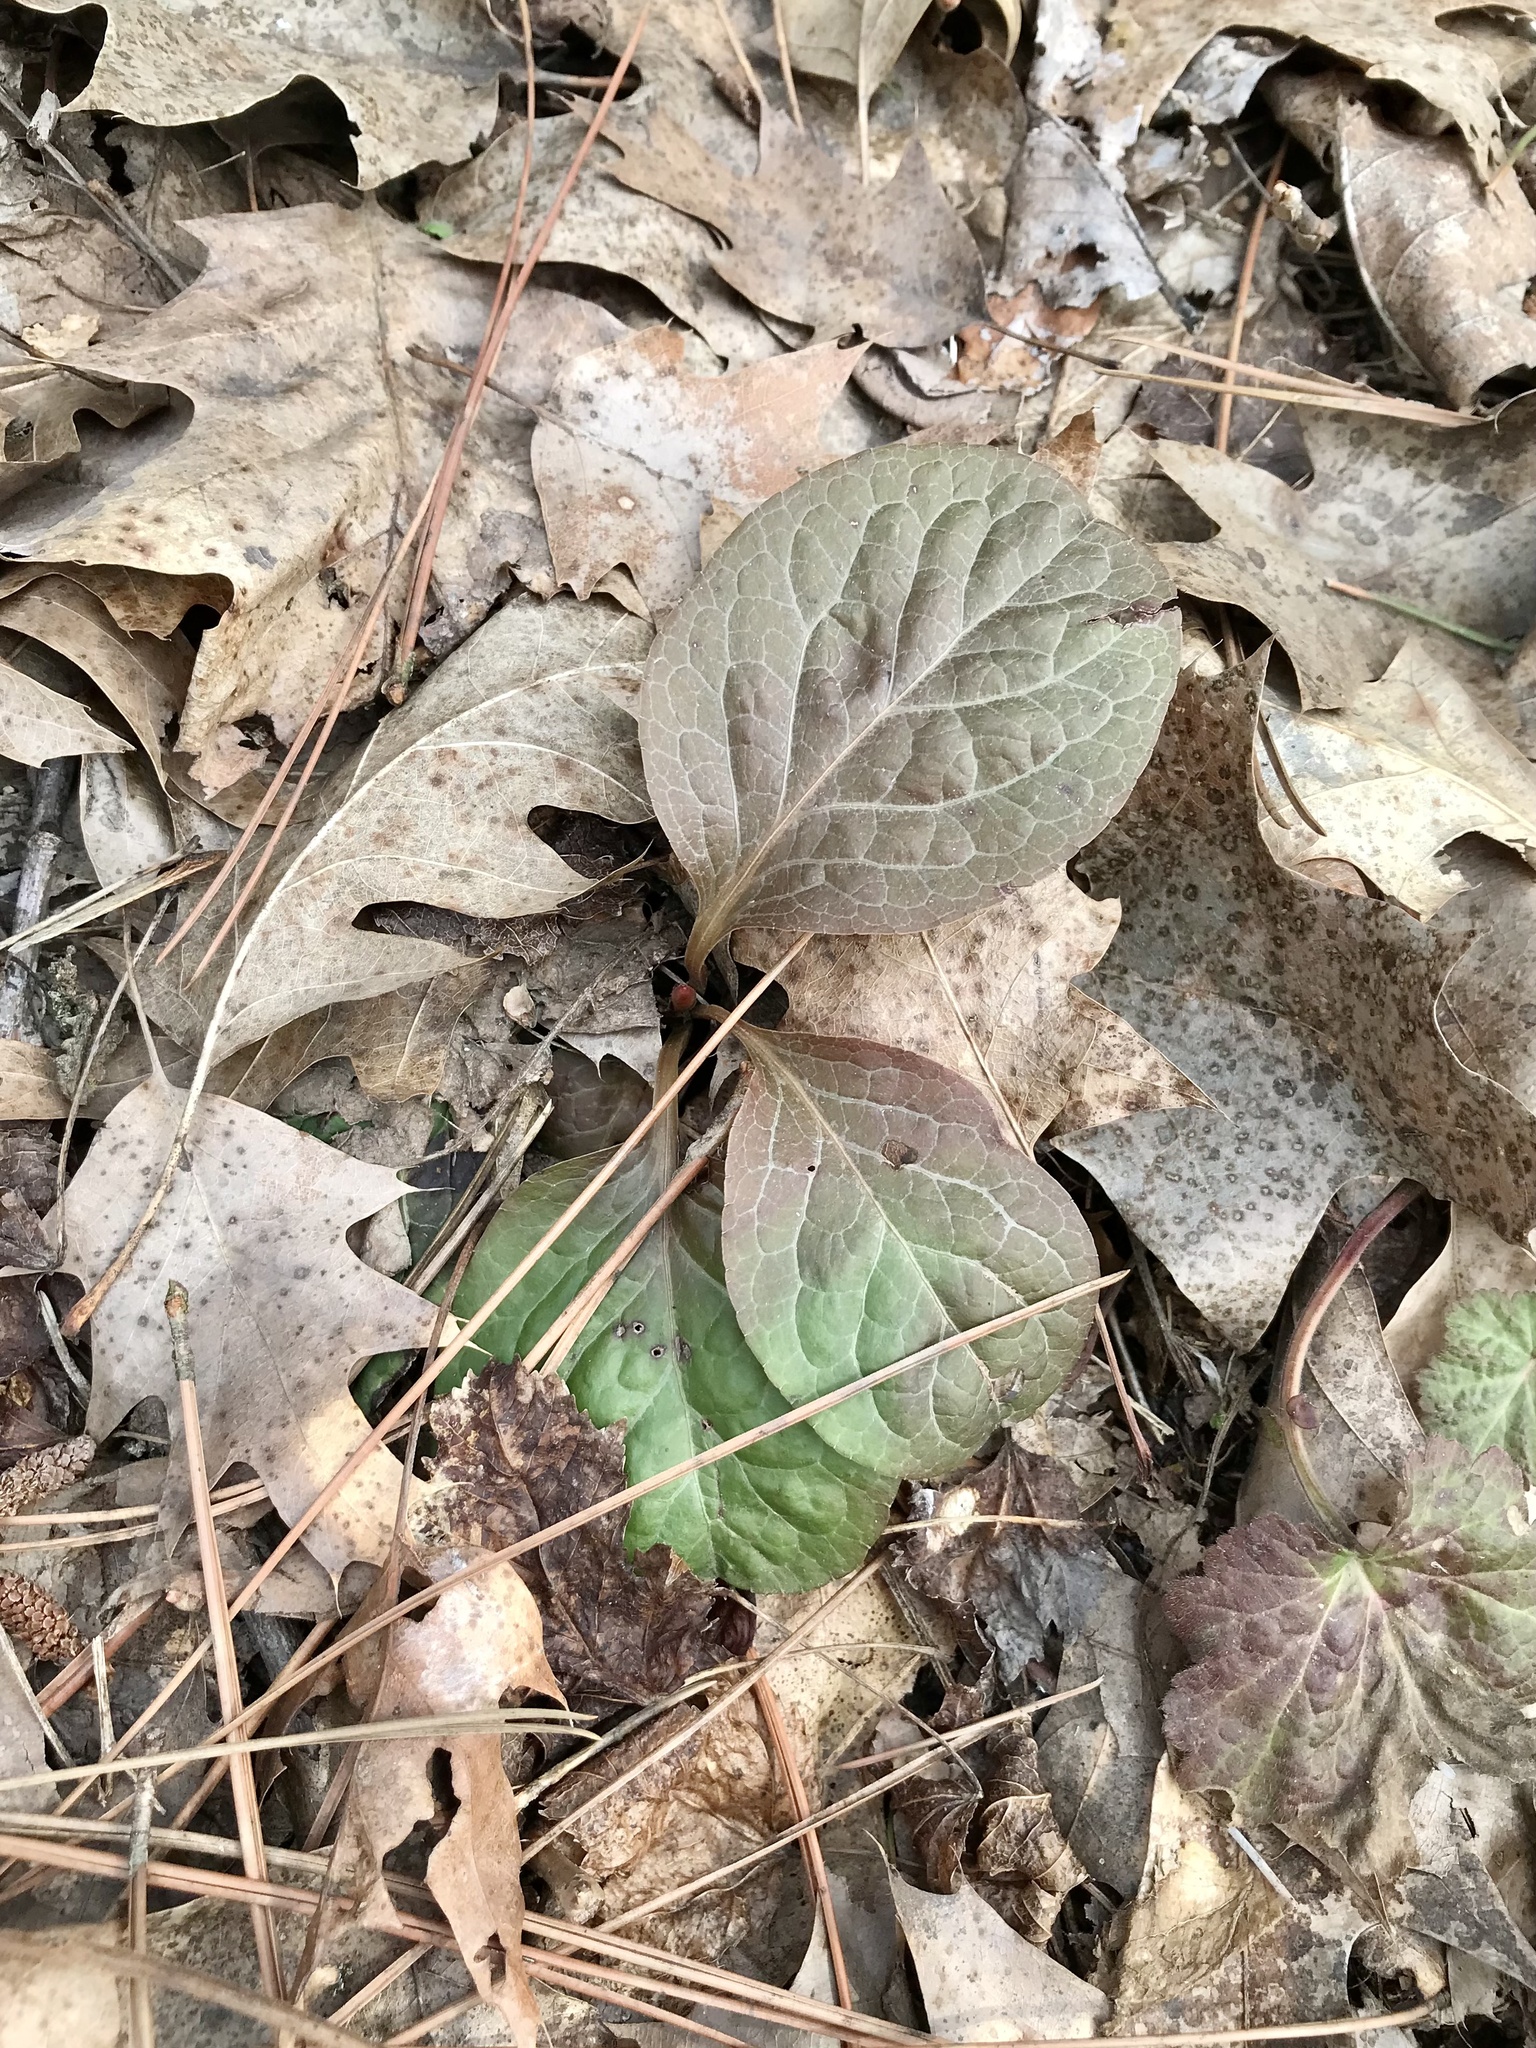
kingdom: Plantae
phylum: Tracheophyta
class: Magnoliopsida
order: Ericales
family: Ericaceae
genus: Pyrola
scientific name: Pyrola elliptica
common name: Shinleaf
